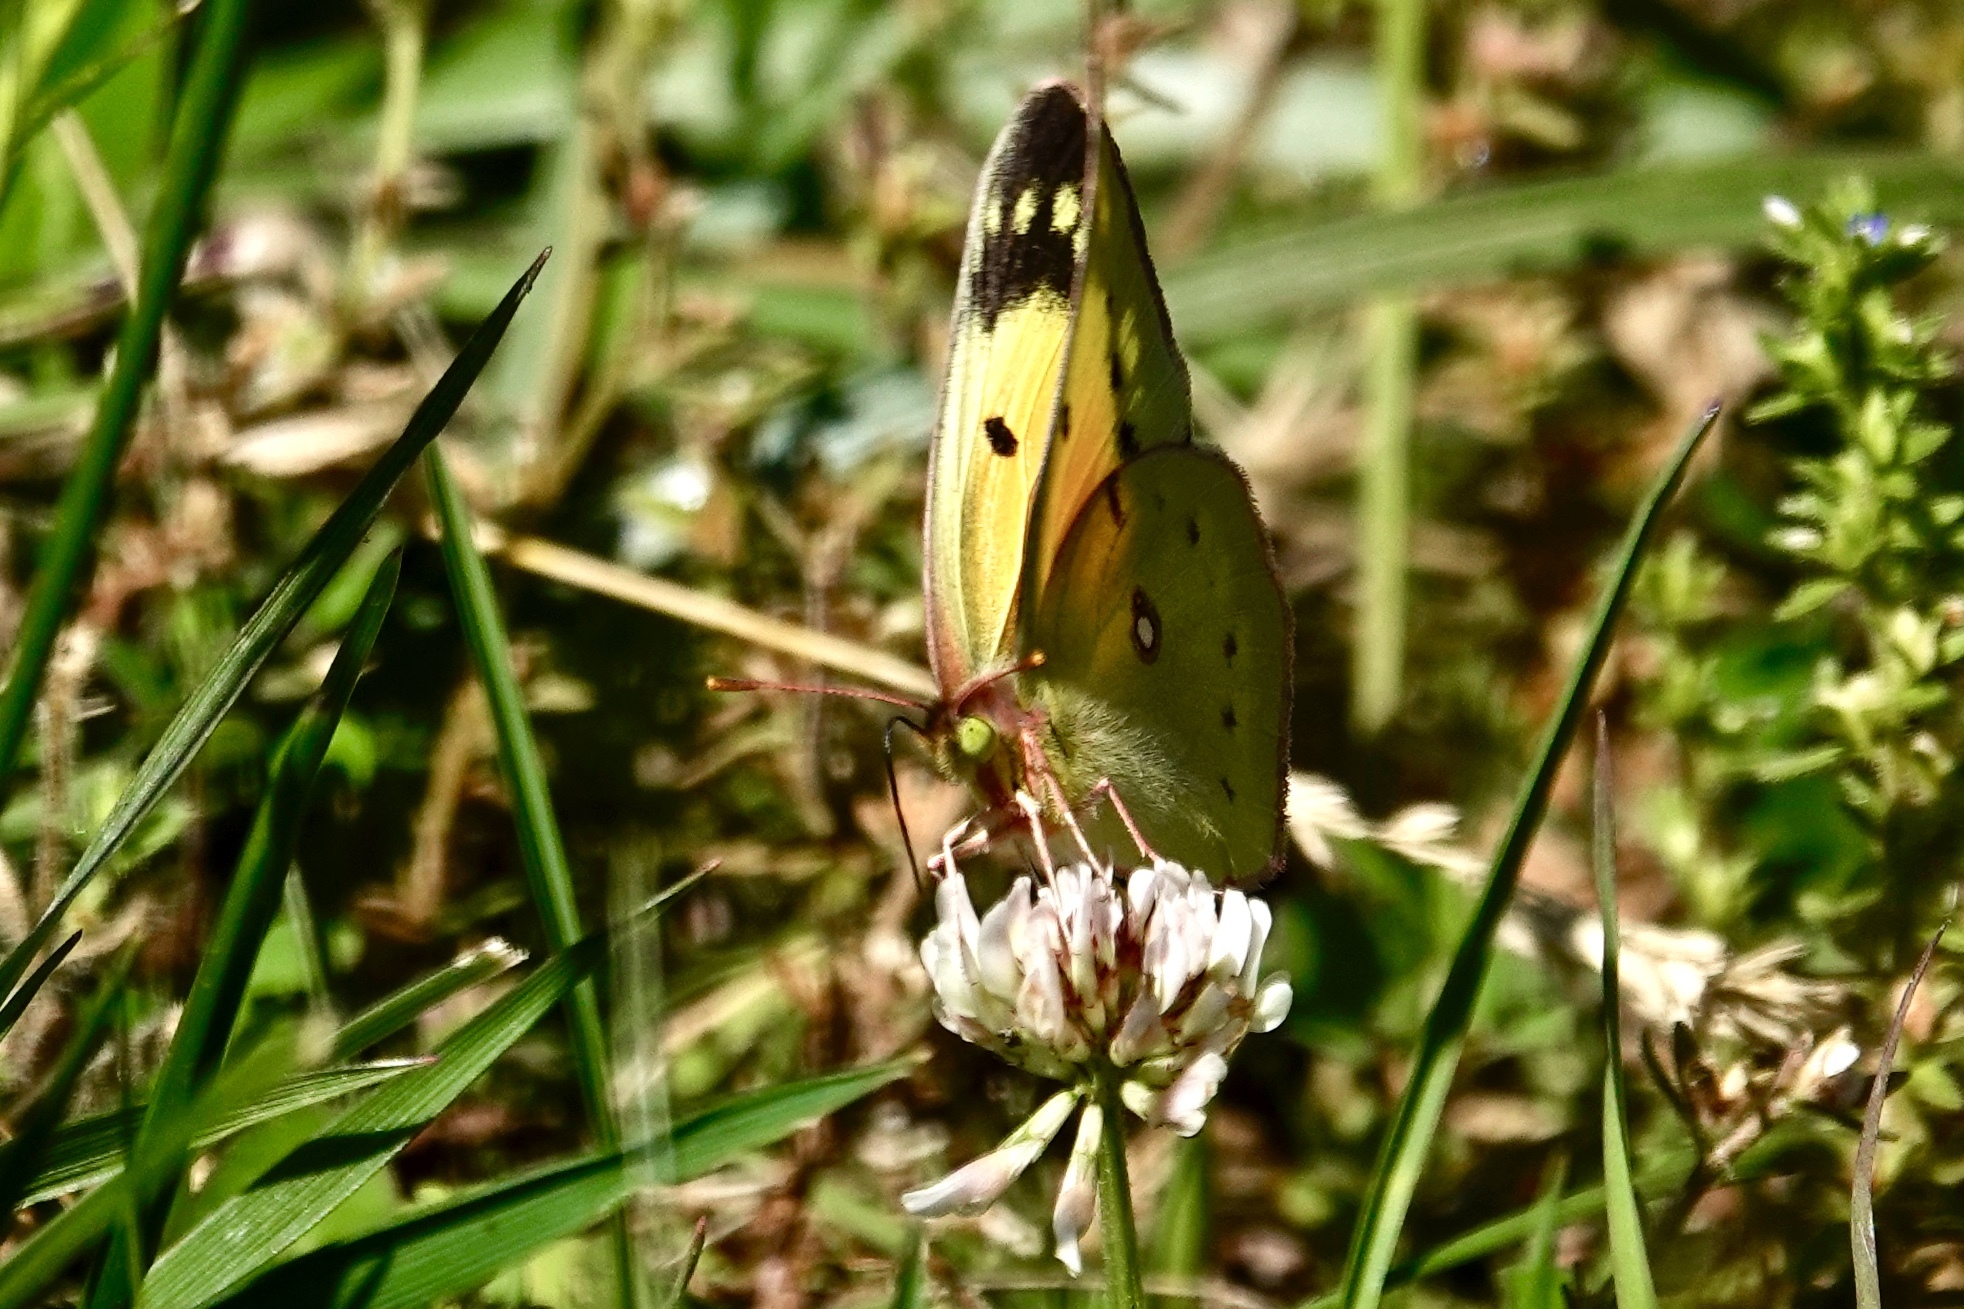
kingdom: Animalia
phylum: Arthropoda
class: Insecta
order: Lepidoptera
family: Pieridae
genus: Colias
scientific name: Colias eurytheme
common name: Alfalfa butterfly
